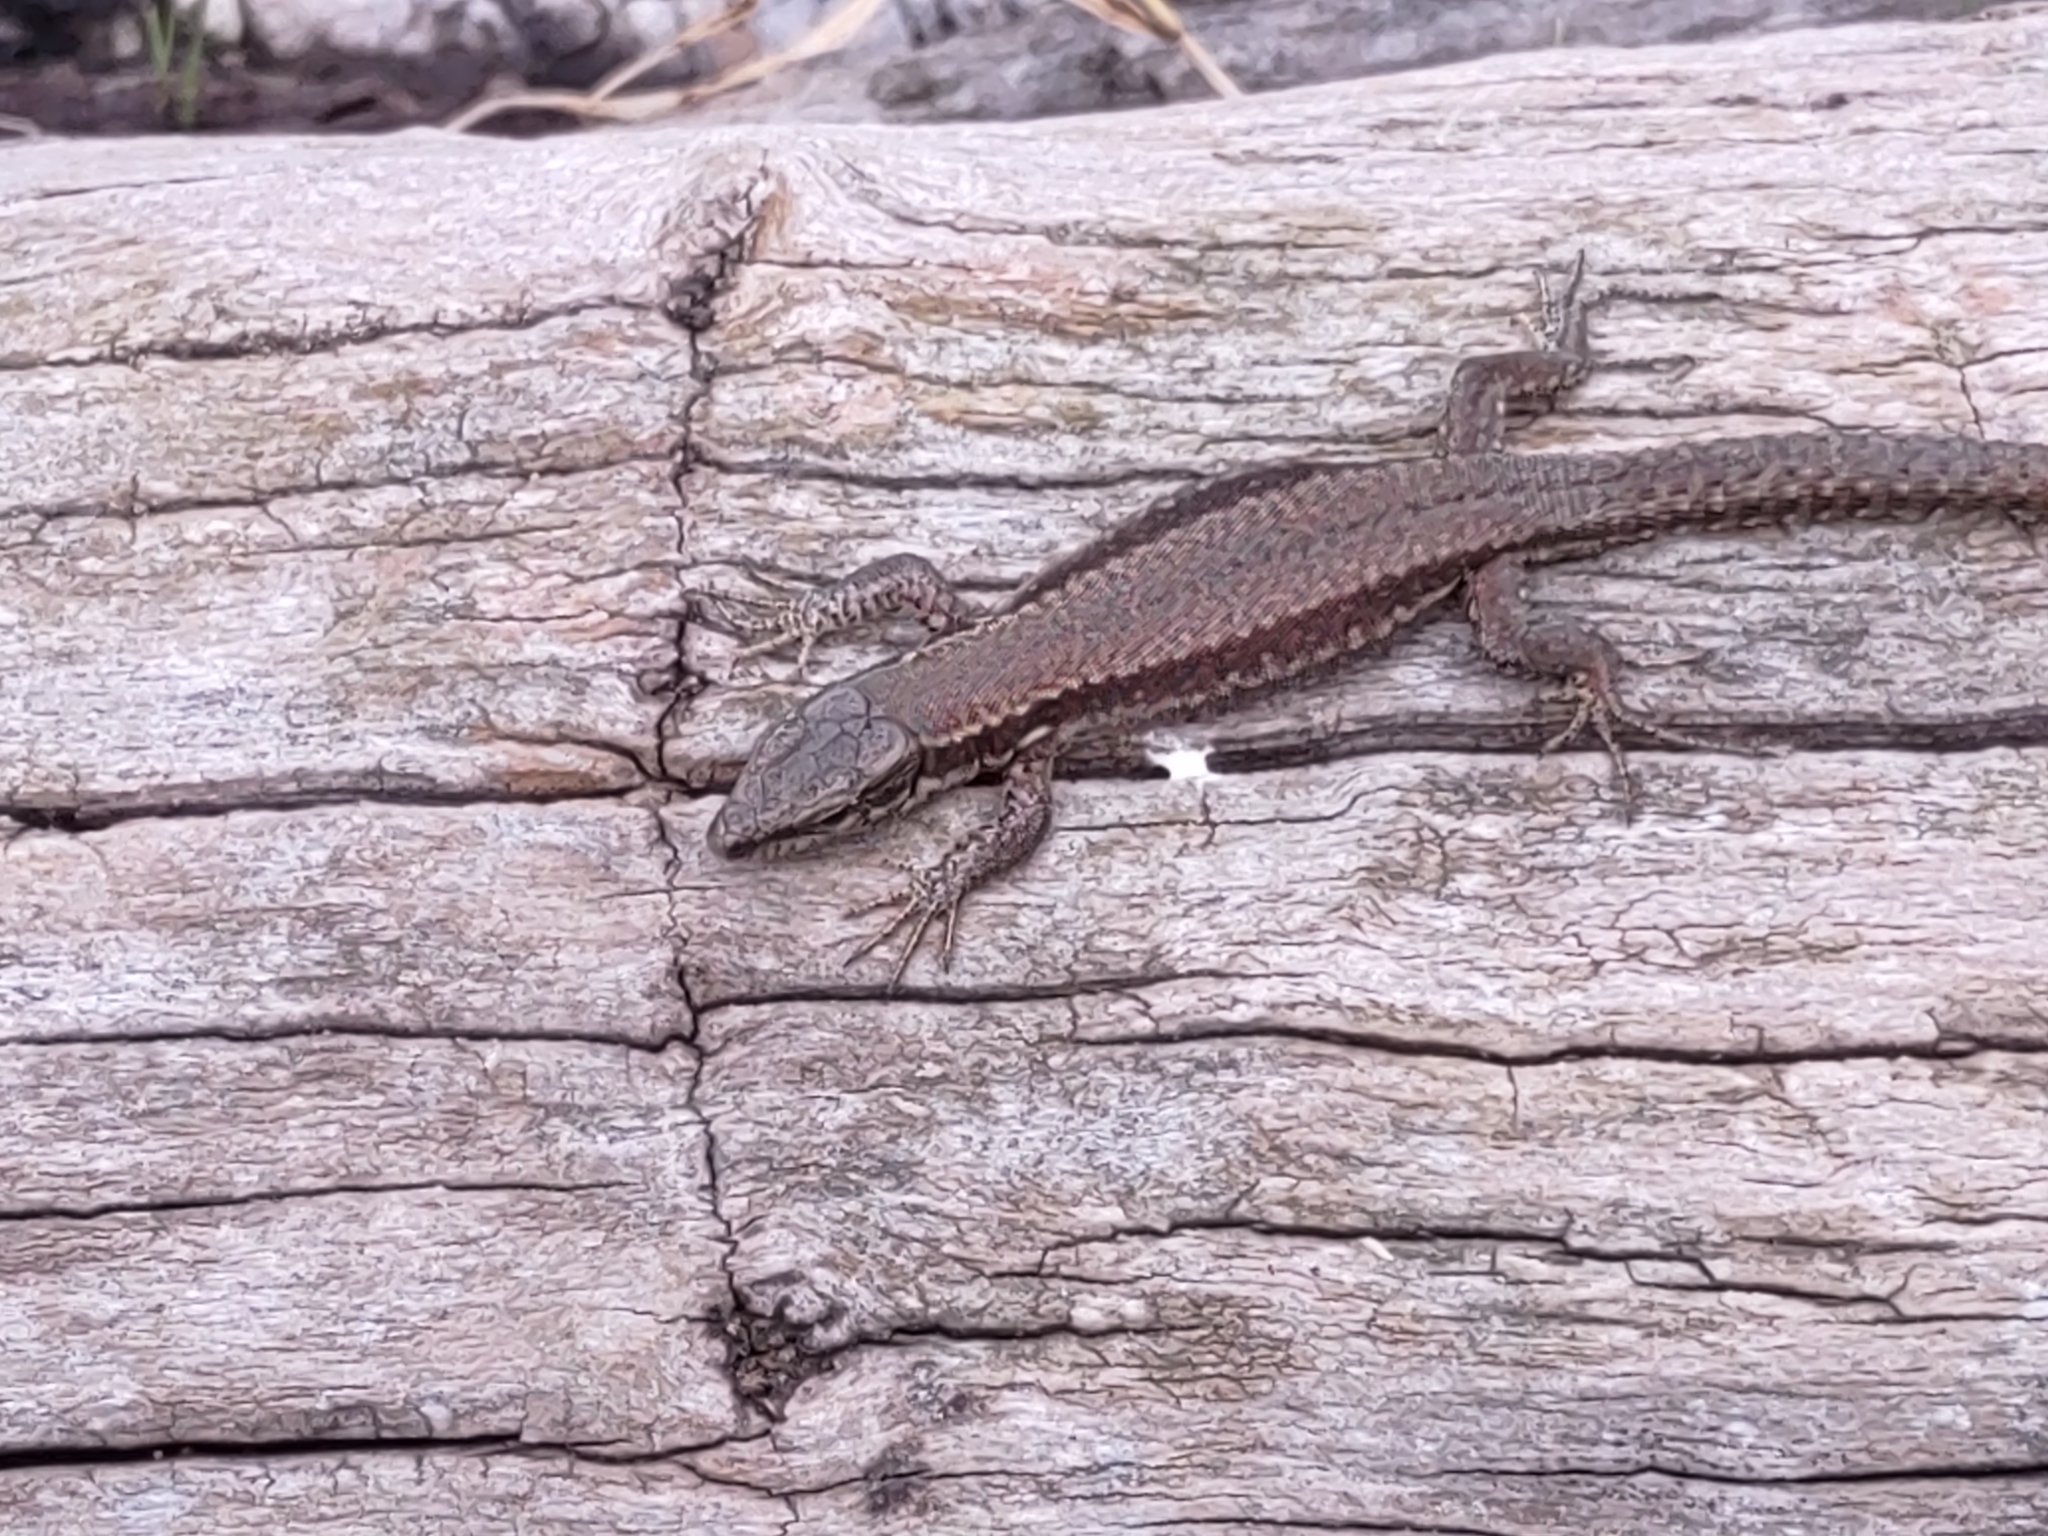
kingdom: Animalia
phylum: Chordata
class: Squamata
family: Lacertidae
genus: Podarcis
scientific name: Podarcis muralis
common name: Common wall lizard
